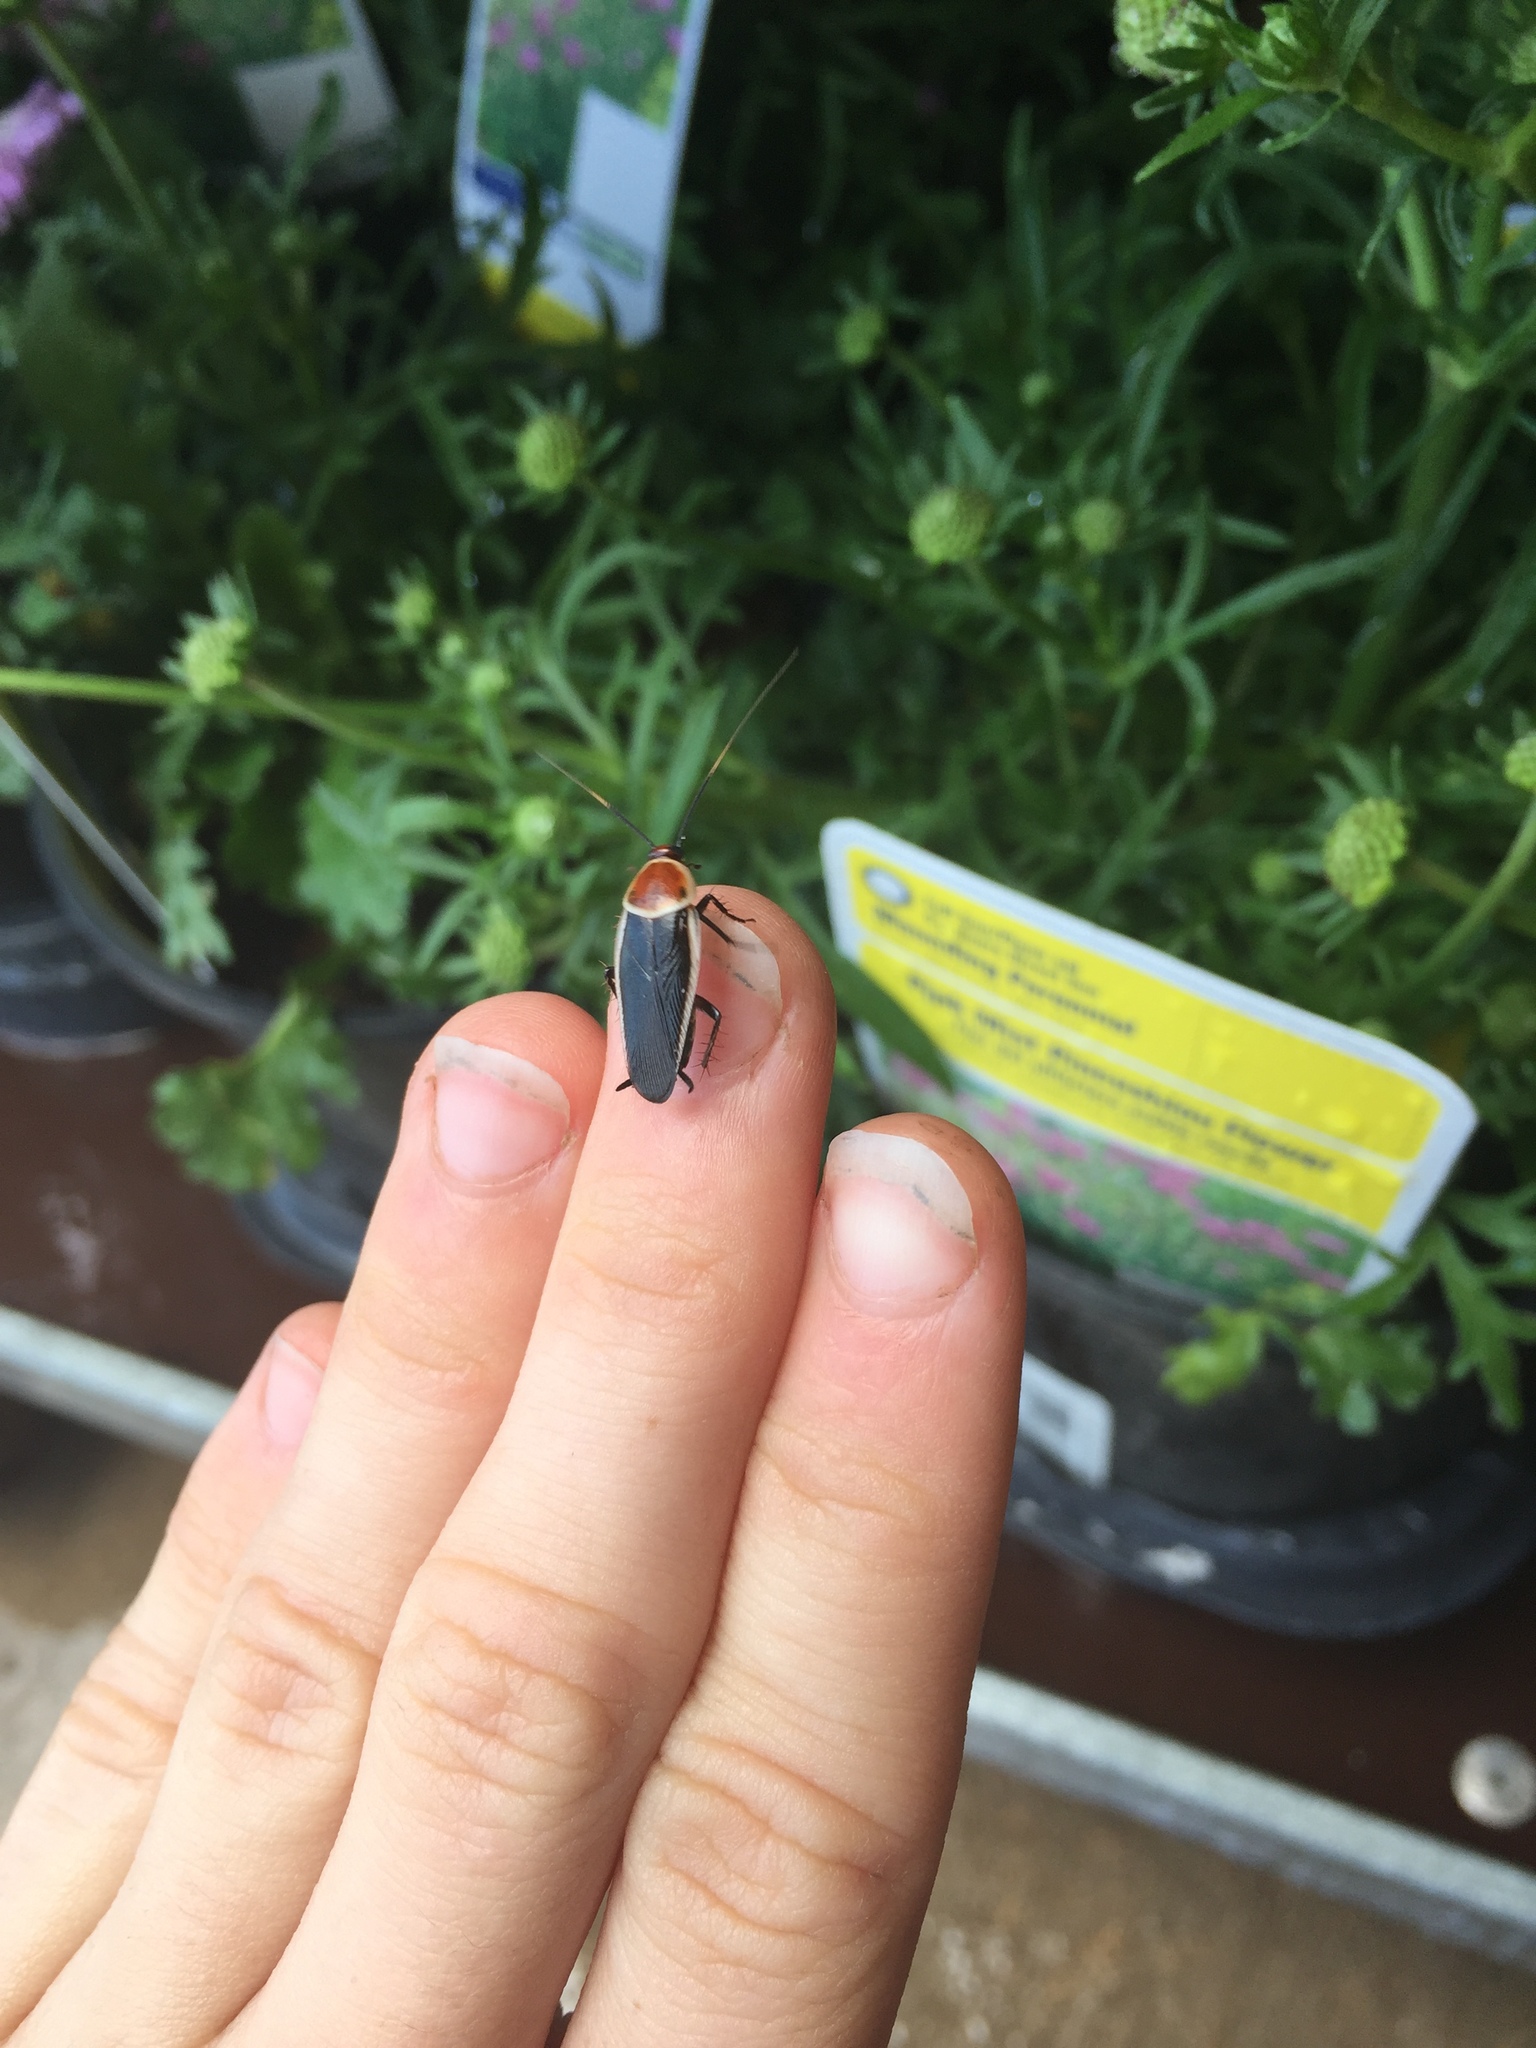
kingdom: Animalia
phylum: Arthropoda
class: Insecta
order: Blattodea
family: Ectobiidae
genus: Pseudomops
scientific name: Pseudomops septentrionalis
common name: Pale-bordered field cockroach
